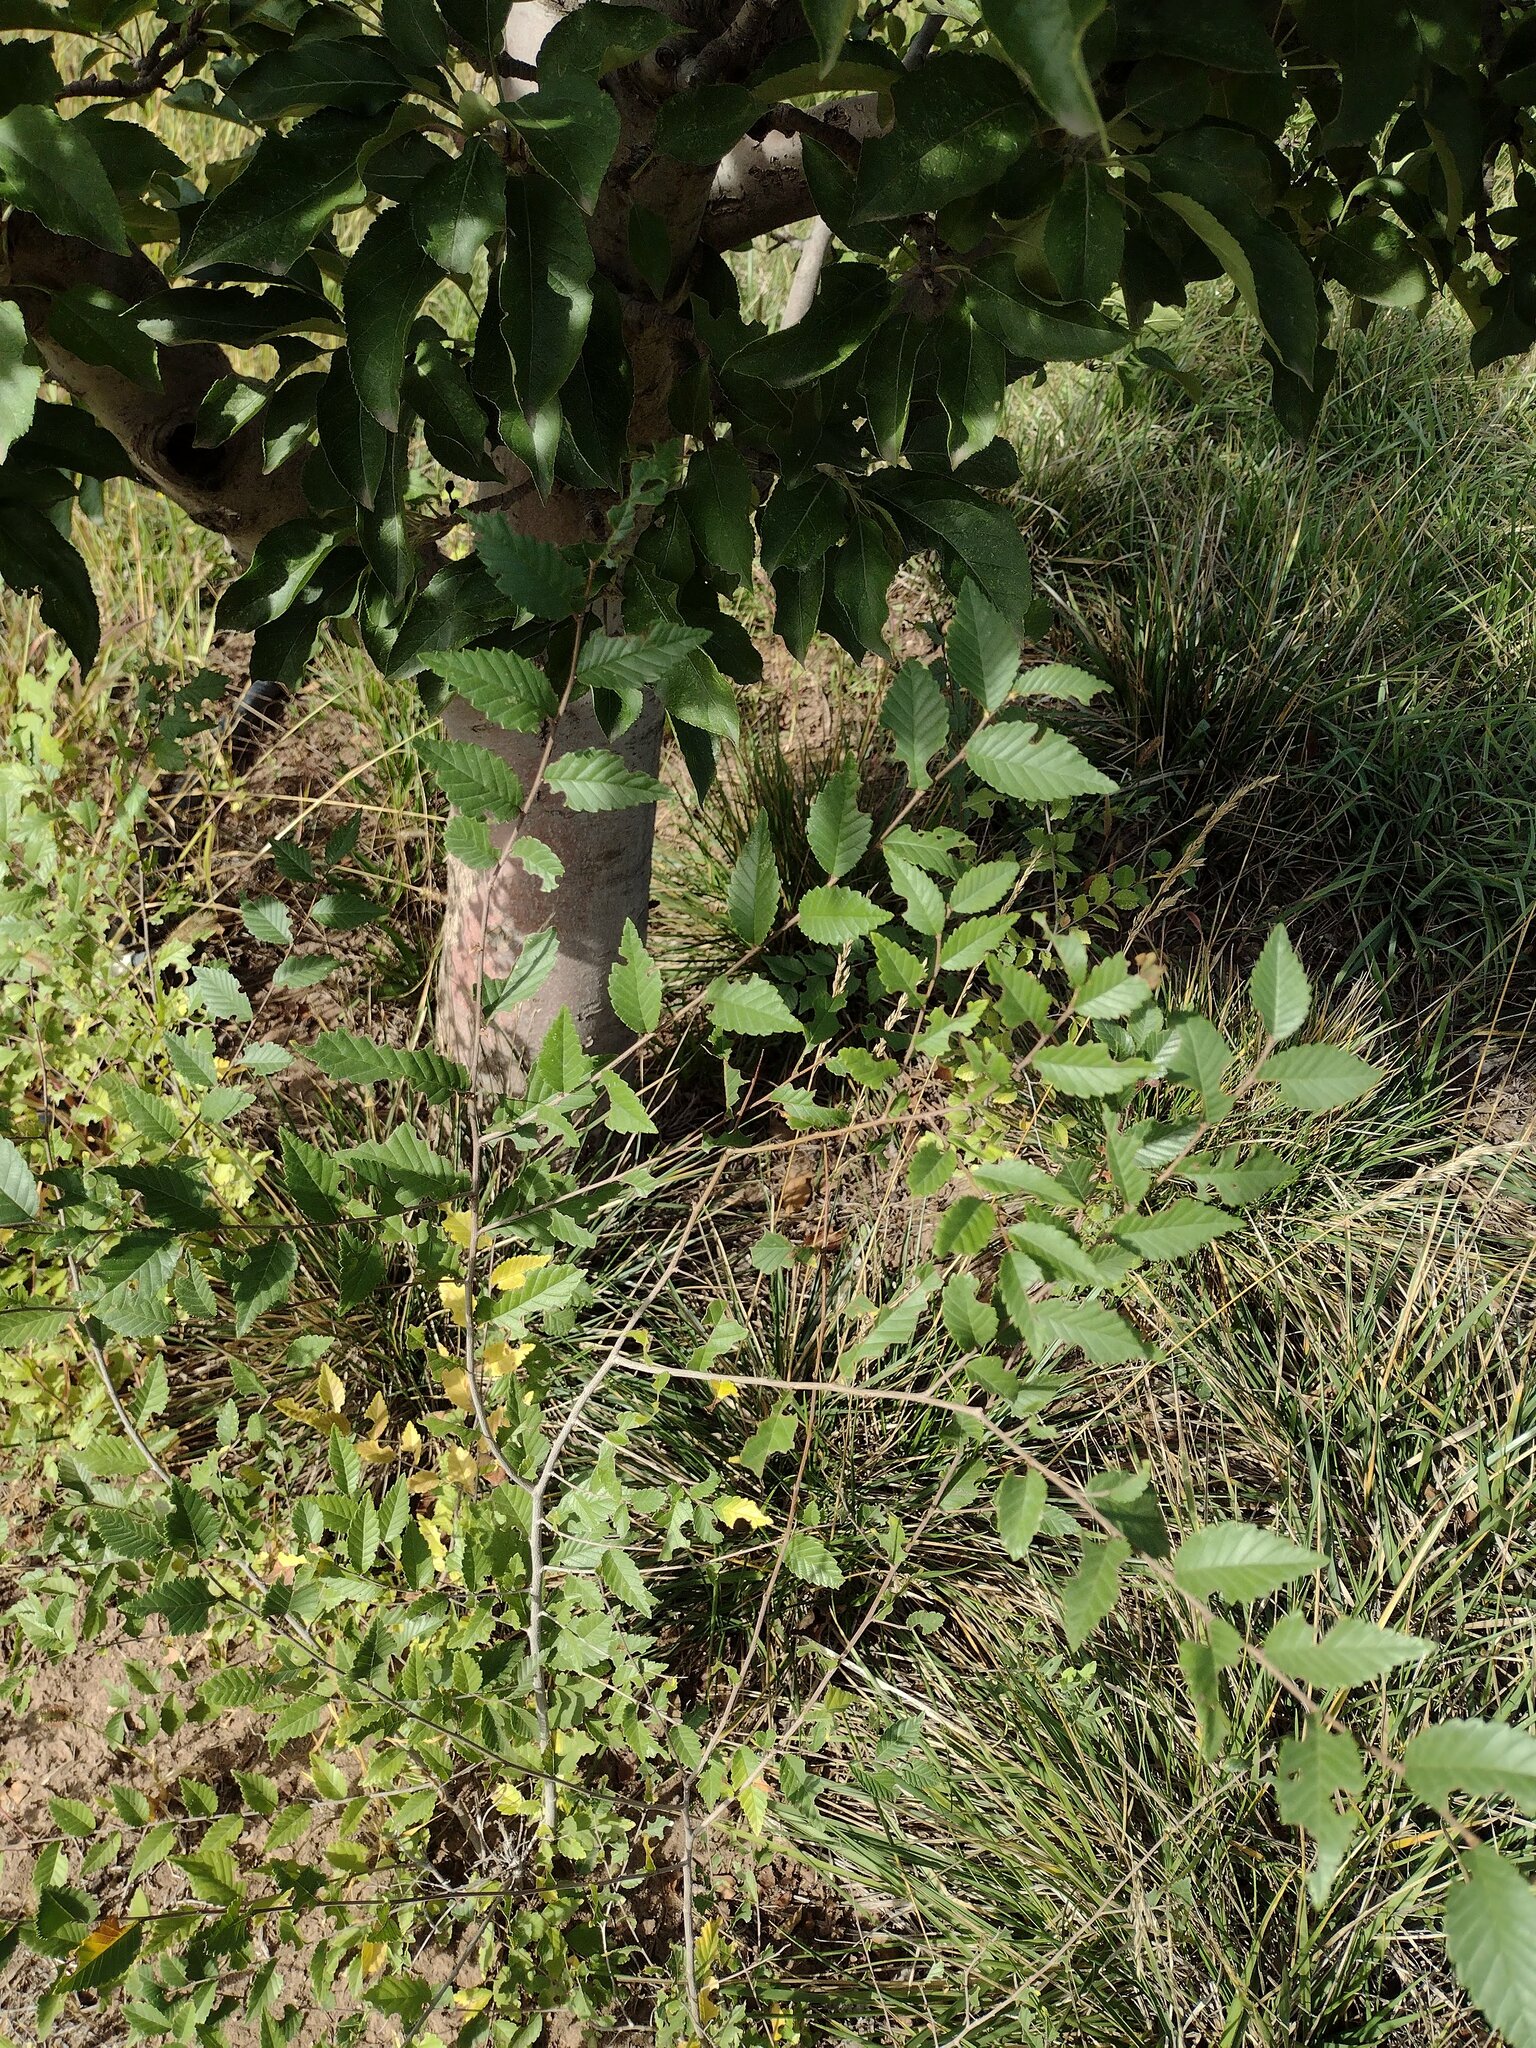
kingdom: Plantae
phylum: Tracheophyta
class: Magnoliopsida
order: Rosales
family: Ulmaceae
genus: Ulmus
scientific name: Ulmus pumila
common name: Siberian elm
